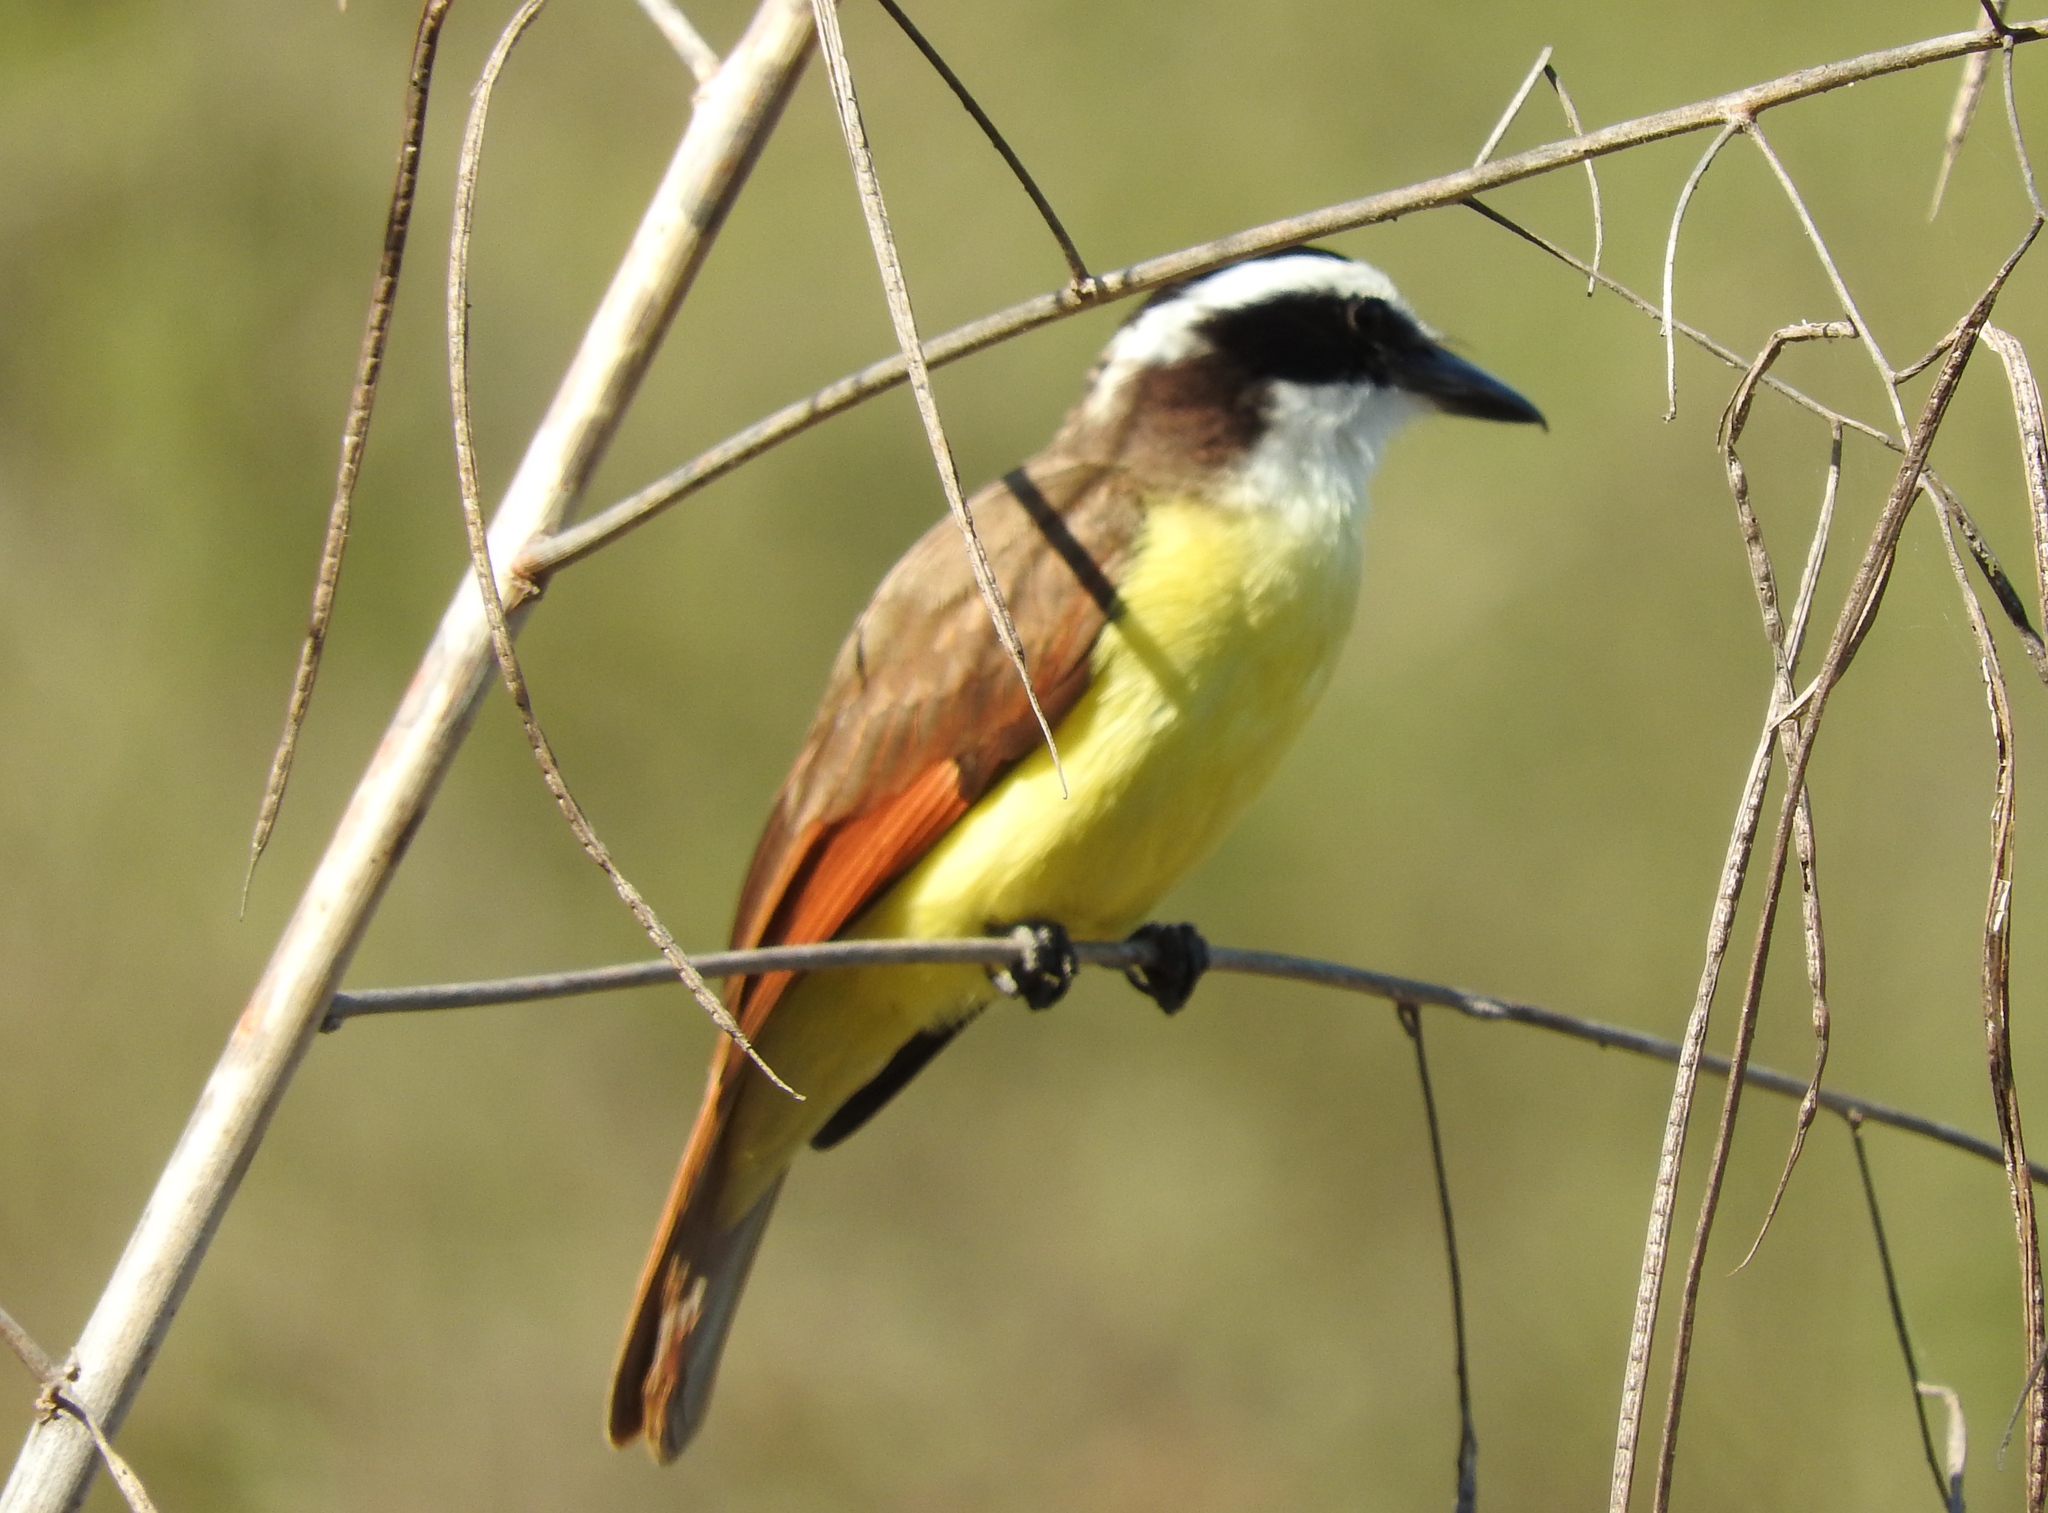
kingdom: Animalia
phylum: Chordata
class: Aves
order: Passeriformes
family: Tyrannidae
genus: Pitangus
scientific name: Pitangus sulphuratus
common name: Great kiskadee
